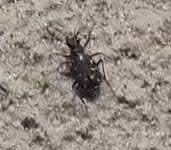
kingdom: Animalia
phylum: Arthropoda
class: Insecta
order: Coleoptera
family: Carabidae
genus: Cicindela
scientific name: Cicindela duodecimguttata
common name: Twelve-spotted tiger beetle
